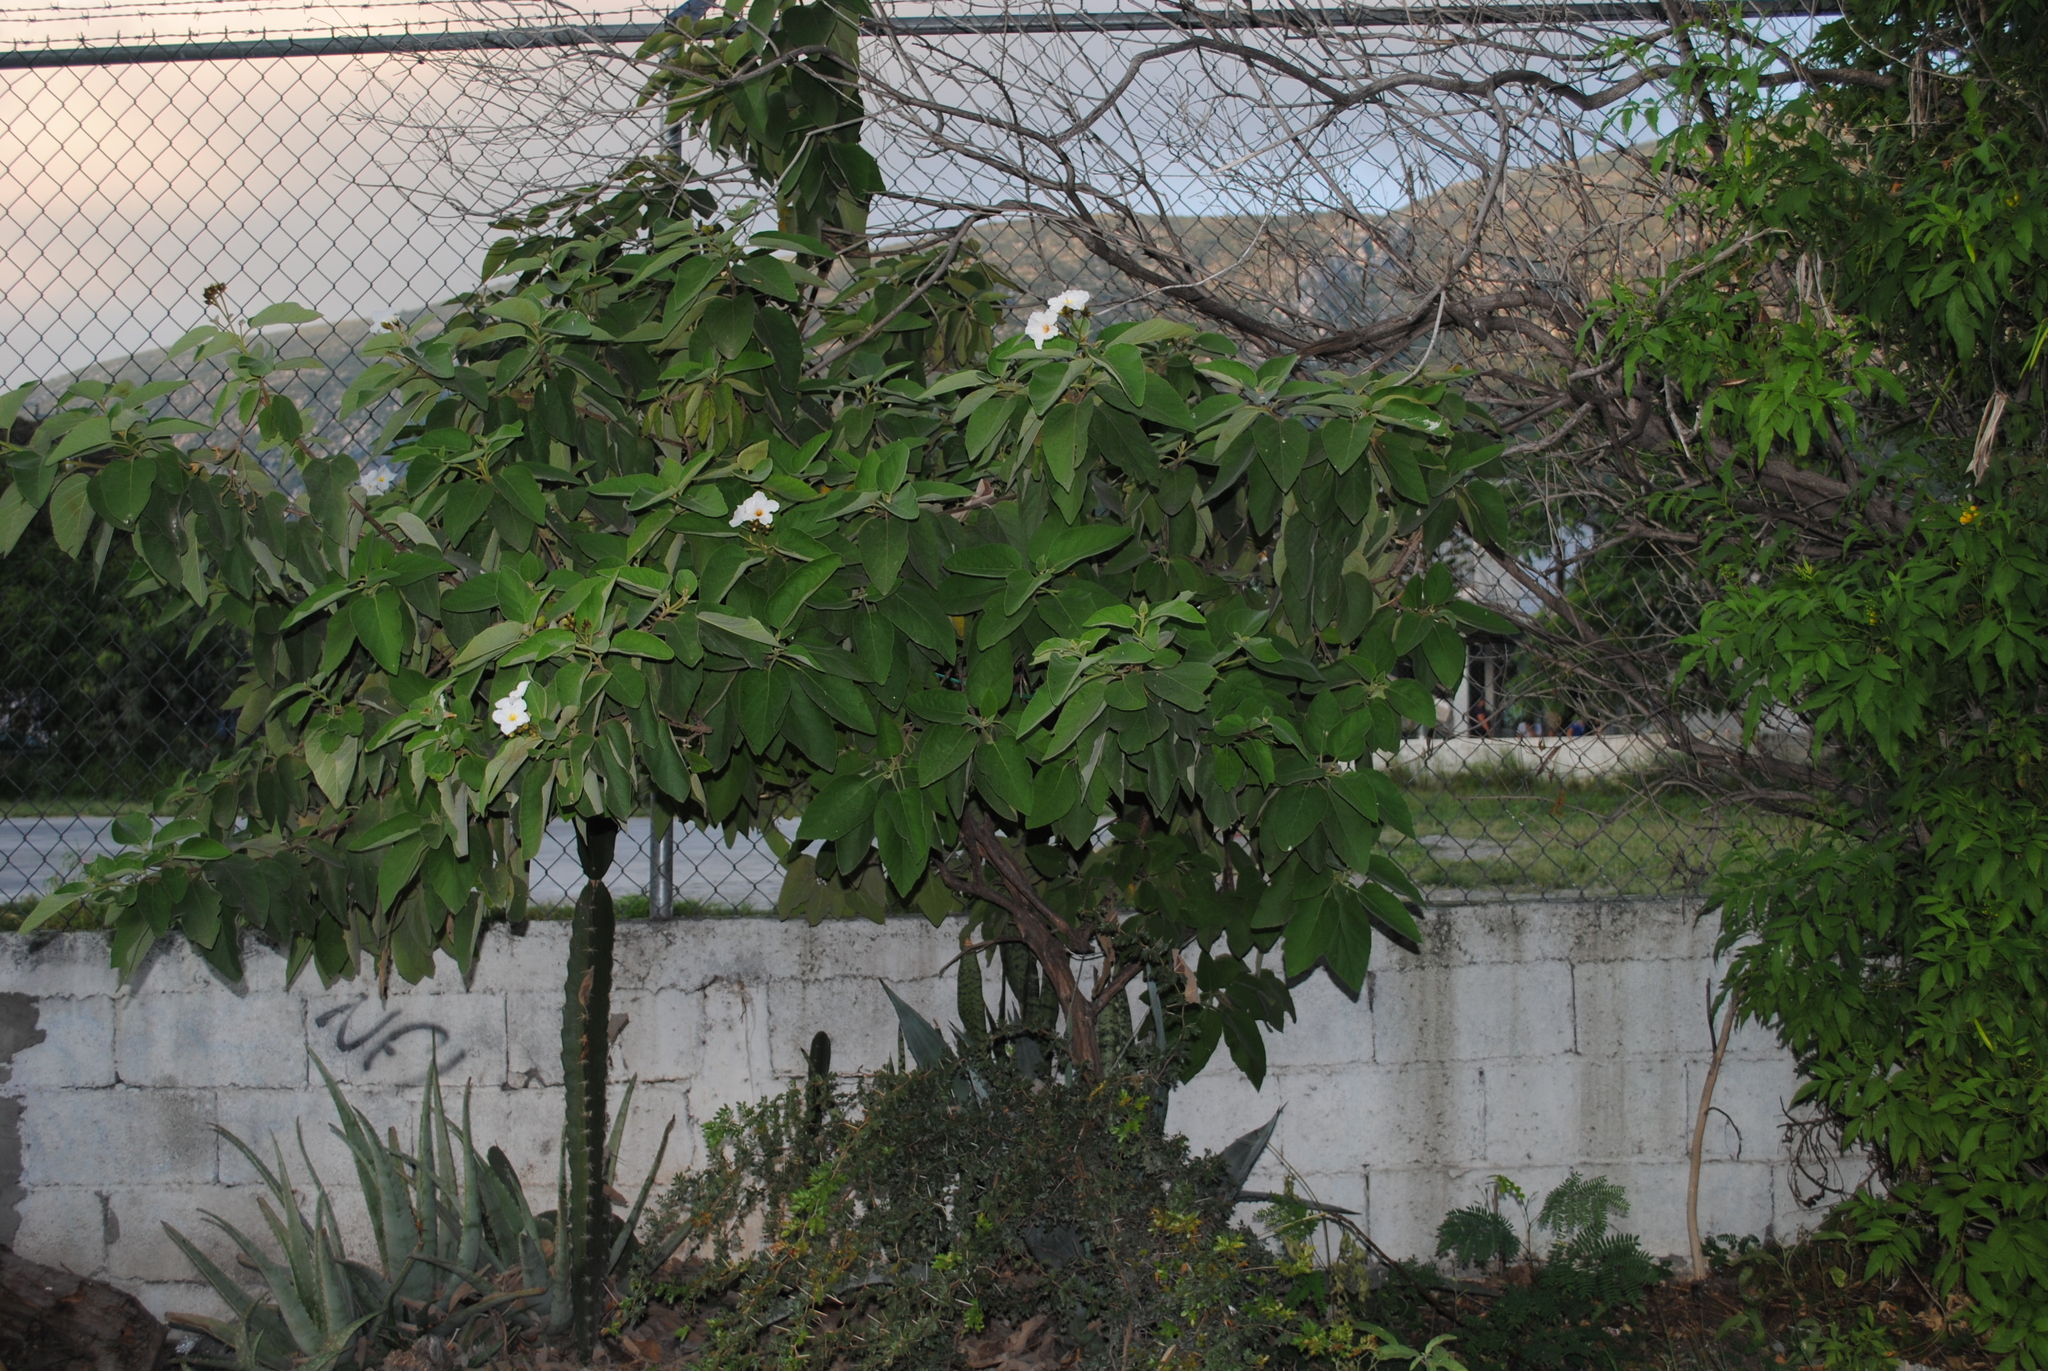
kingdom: Plantae
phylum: Tracheophyta
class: Magnoliopsida
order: Boraginales
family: Cordiaceae
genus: Cordia
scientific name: Cordia boissieri
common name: Mexican-olive
